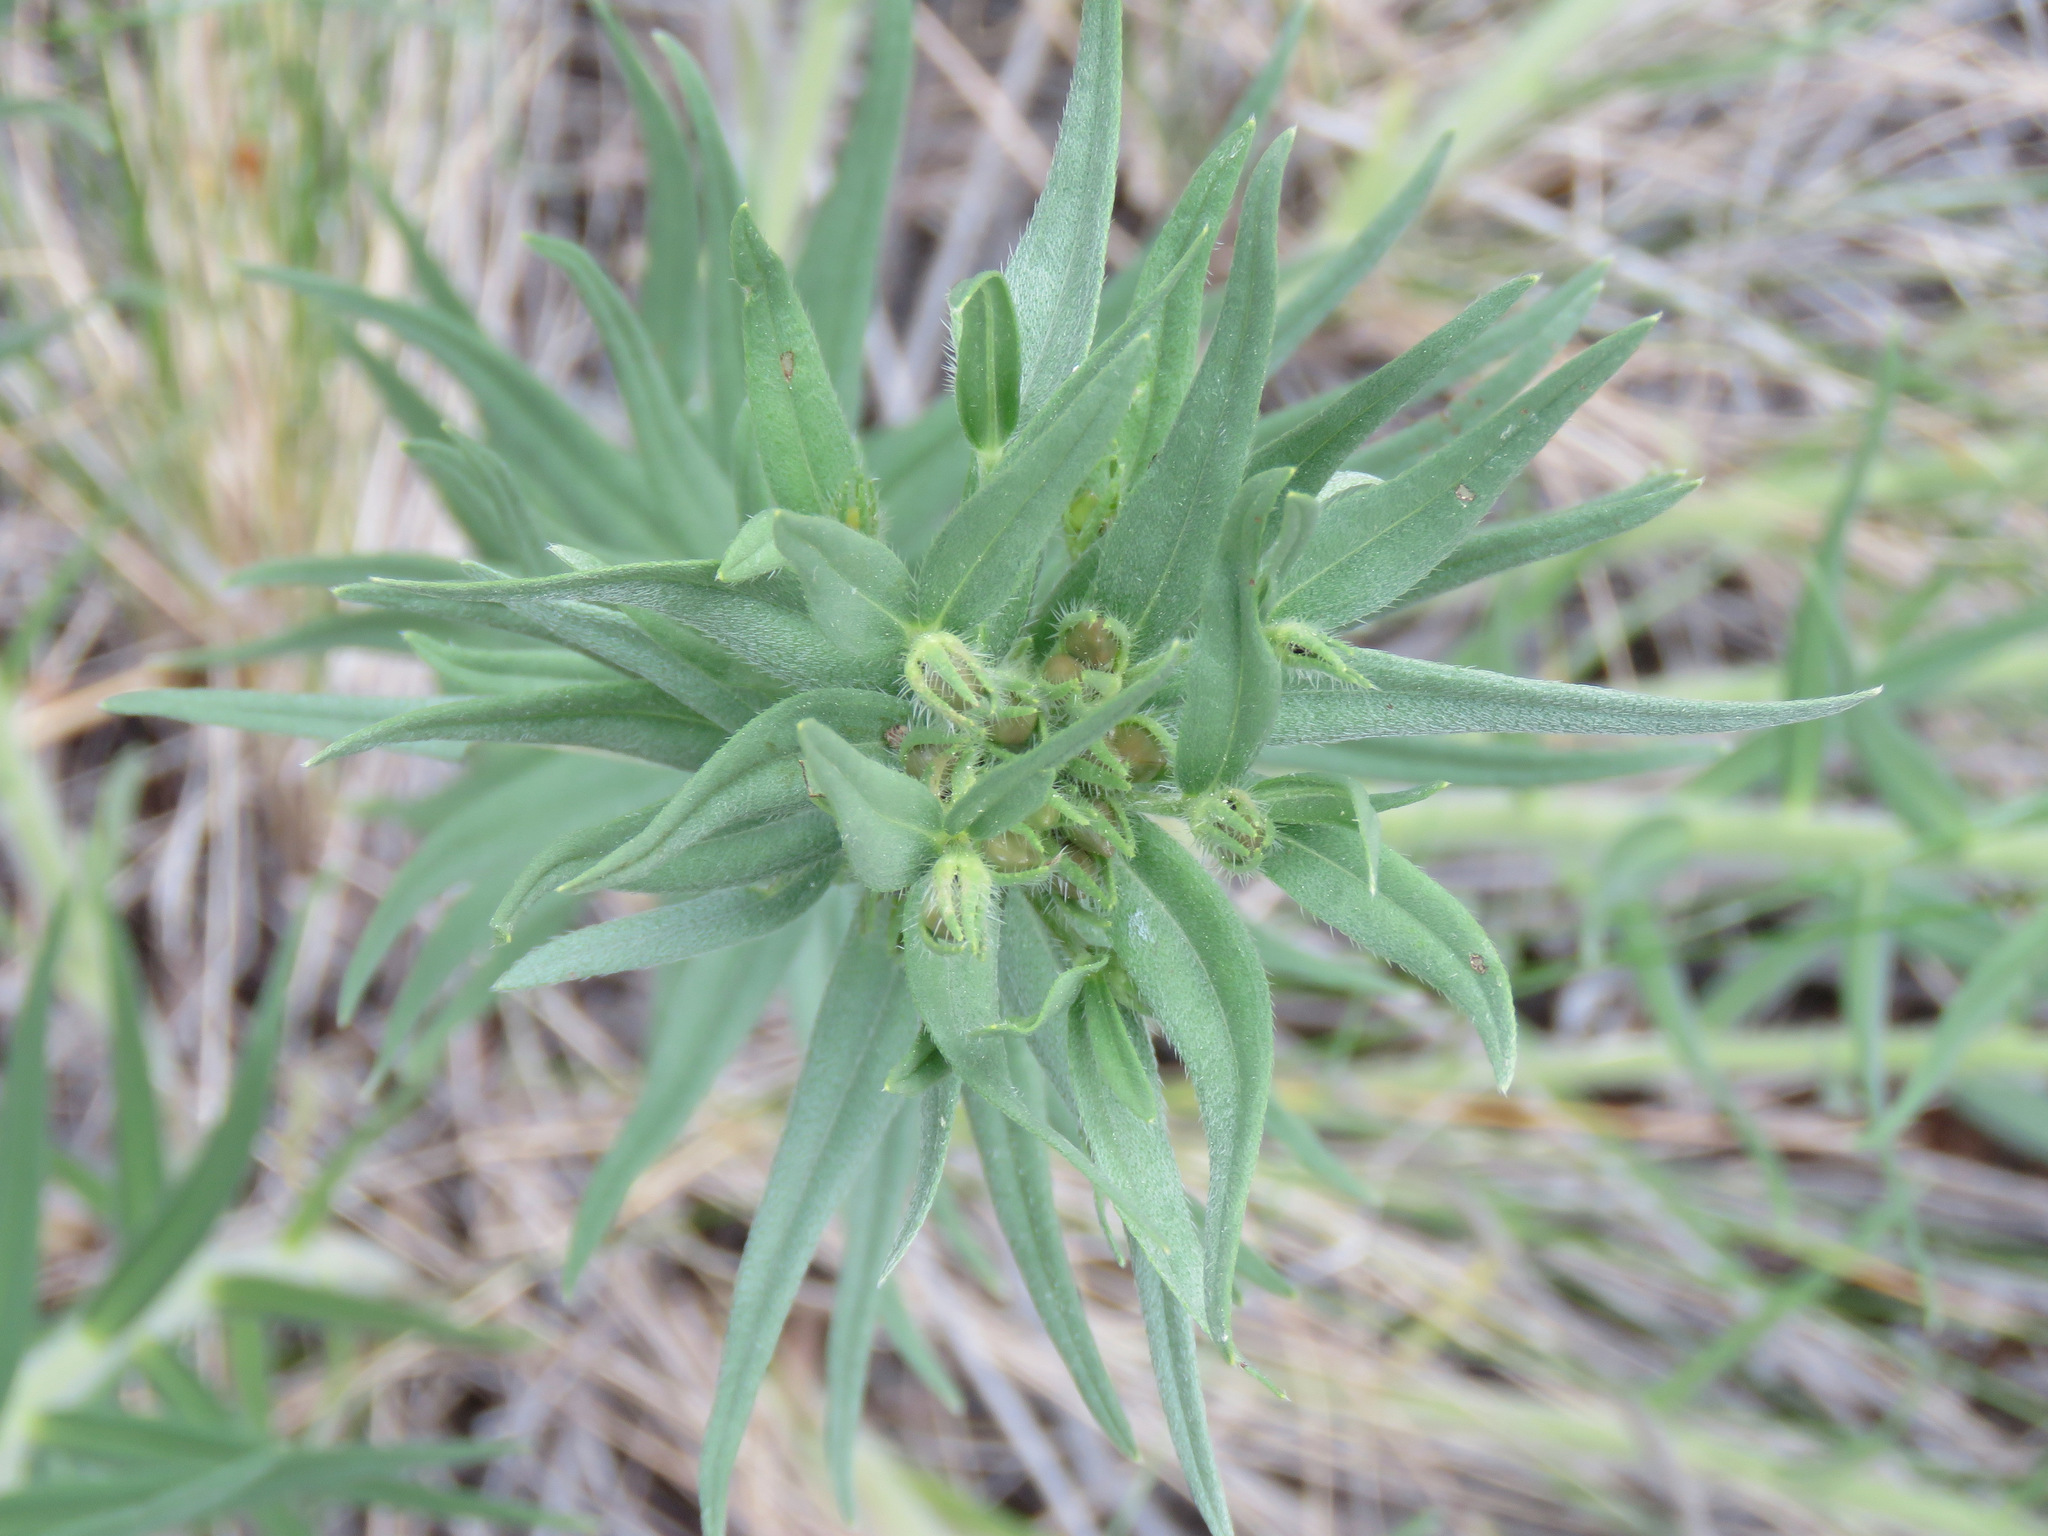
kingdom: Plantae
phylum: Tracheophyta
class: Magnoliopsida
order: Boraginales
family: Boraginaceae
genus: Lithospermum
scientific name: Lithospermum ruderale
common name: Western gromwell
